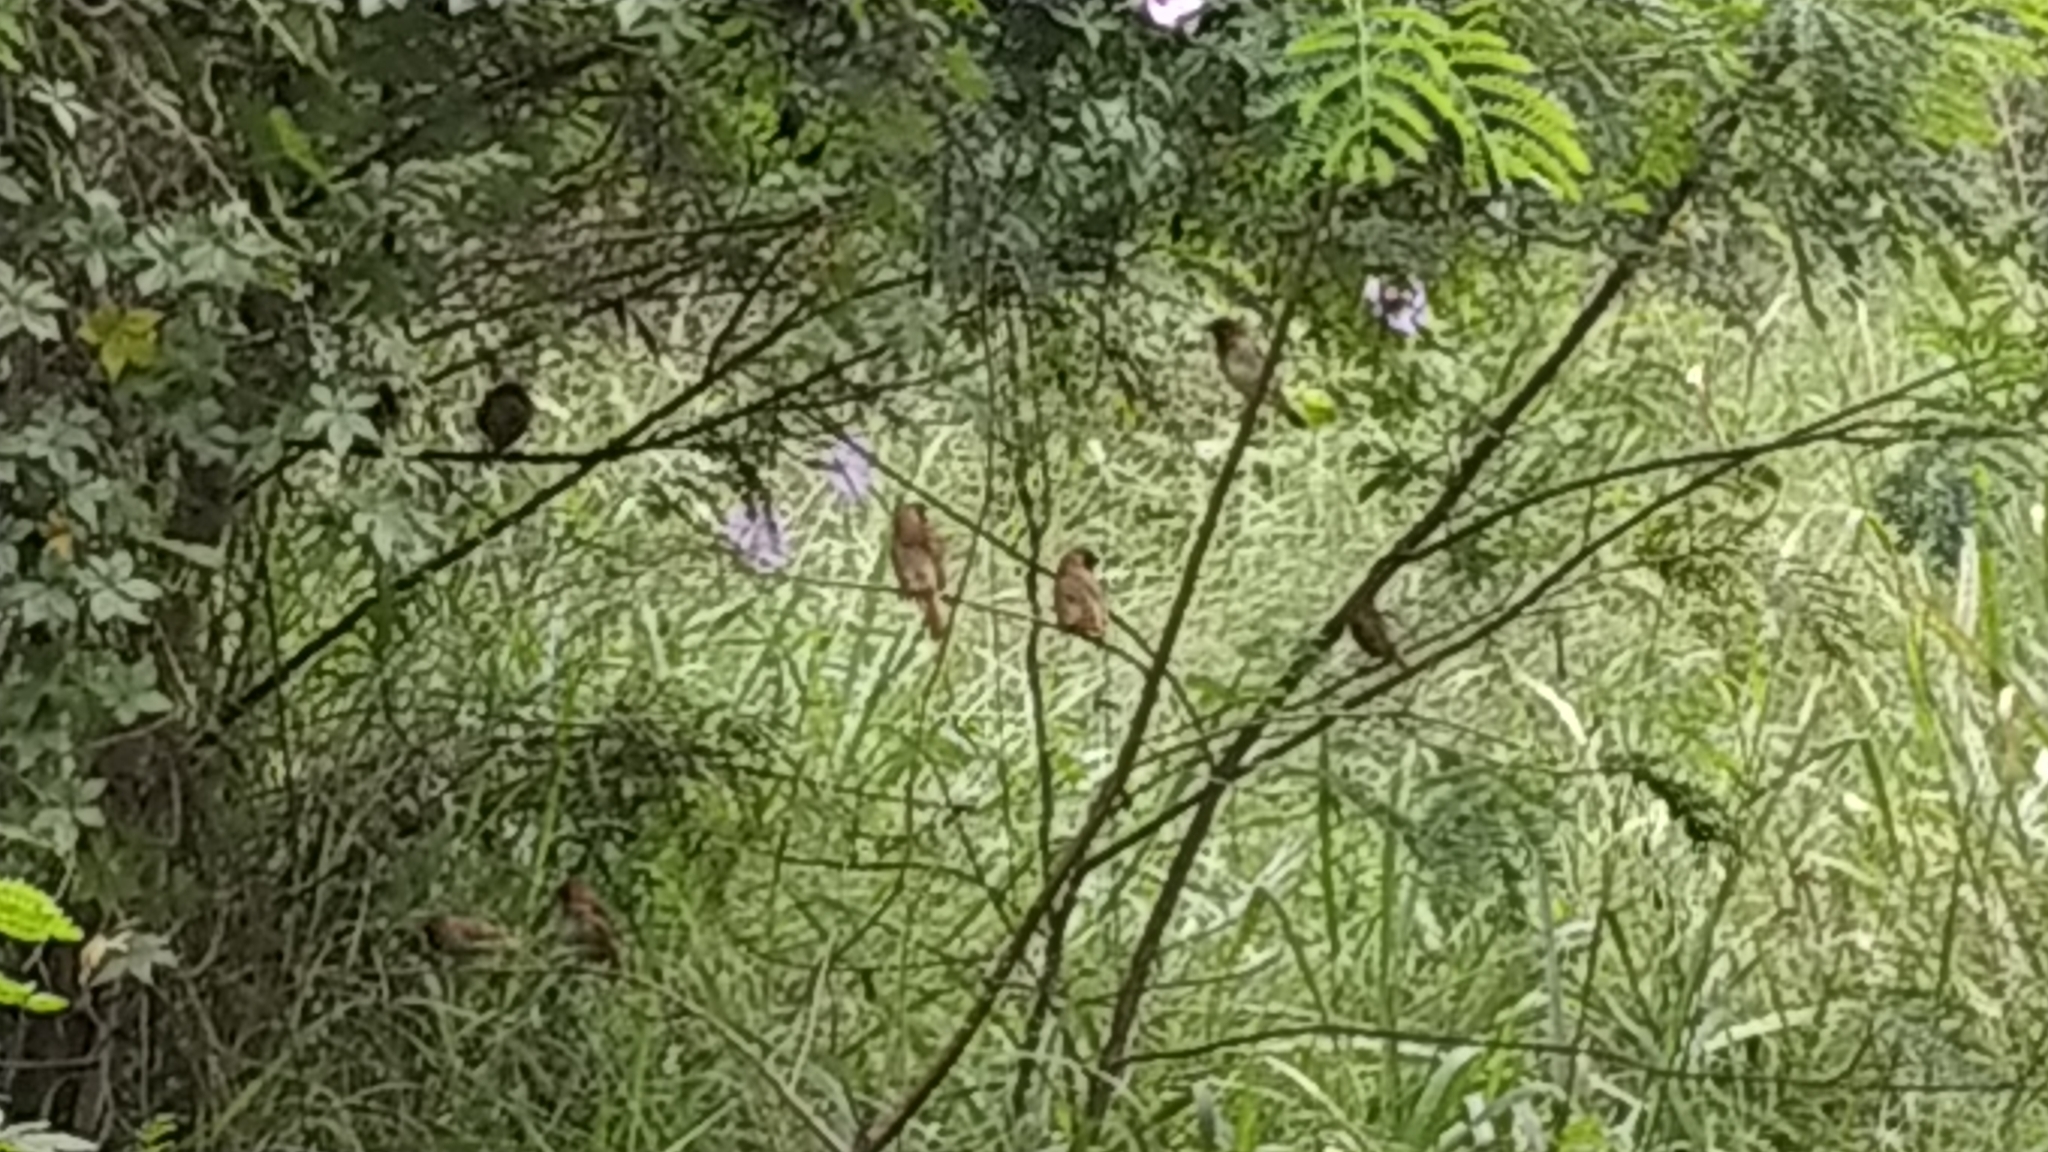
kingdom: Animalia
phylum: Chordata
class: Aves
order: Passeriformes
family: Estrildidae
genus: Lonchura
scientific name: Lonchura punctulata
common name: Scaly-breasted munia
